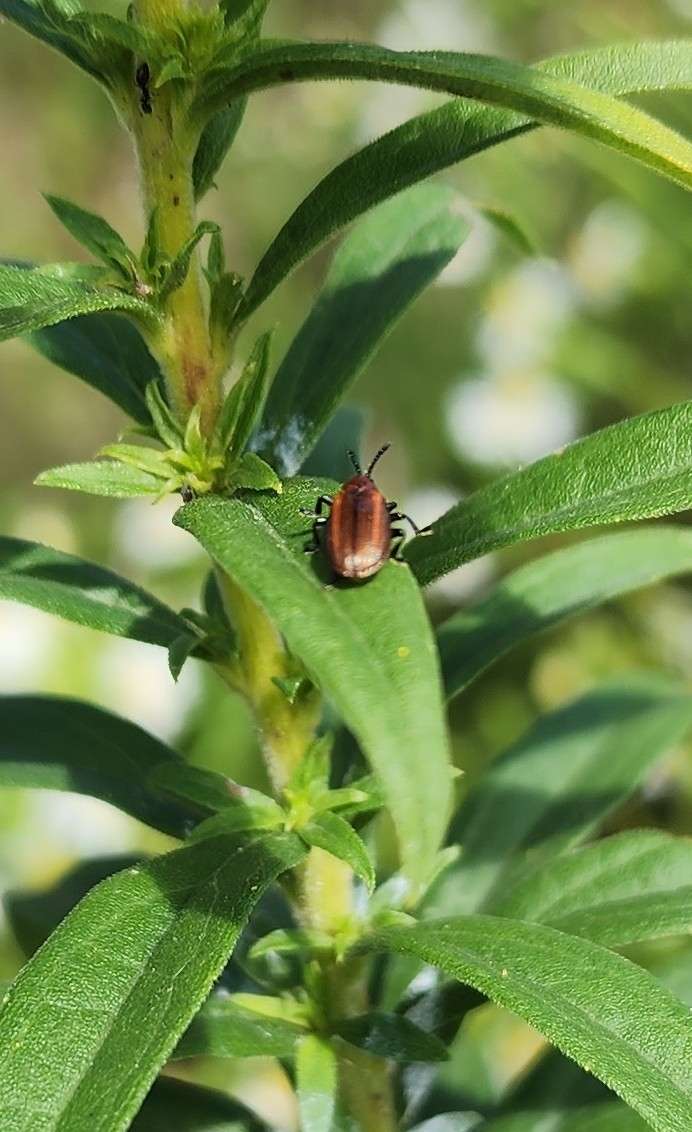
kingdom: Animalia
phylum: Arthropoda
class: Insecta
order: Coleoptera
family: Chrysomelidae
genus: Microrhopala
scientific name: Microrhopala vittata
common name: Goldenrod leaf miner beetle
